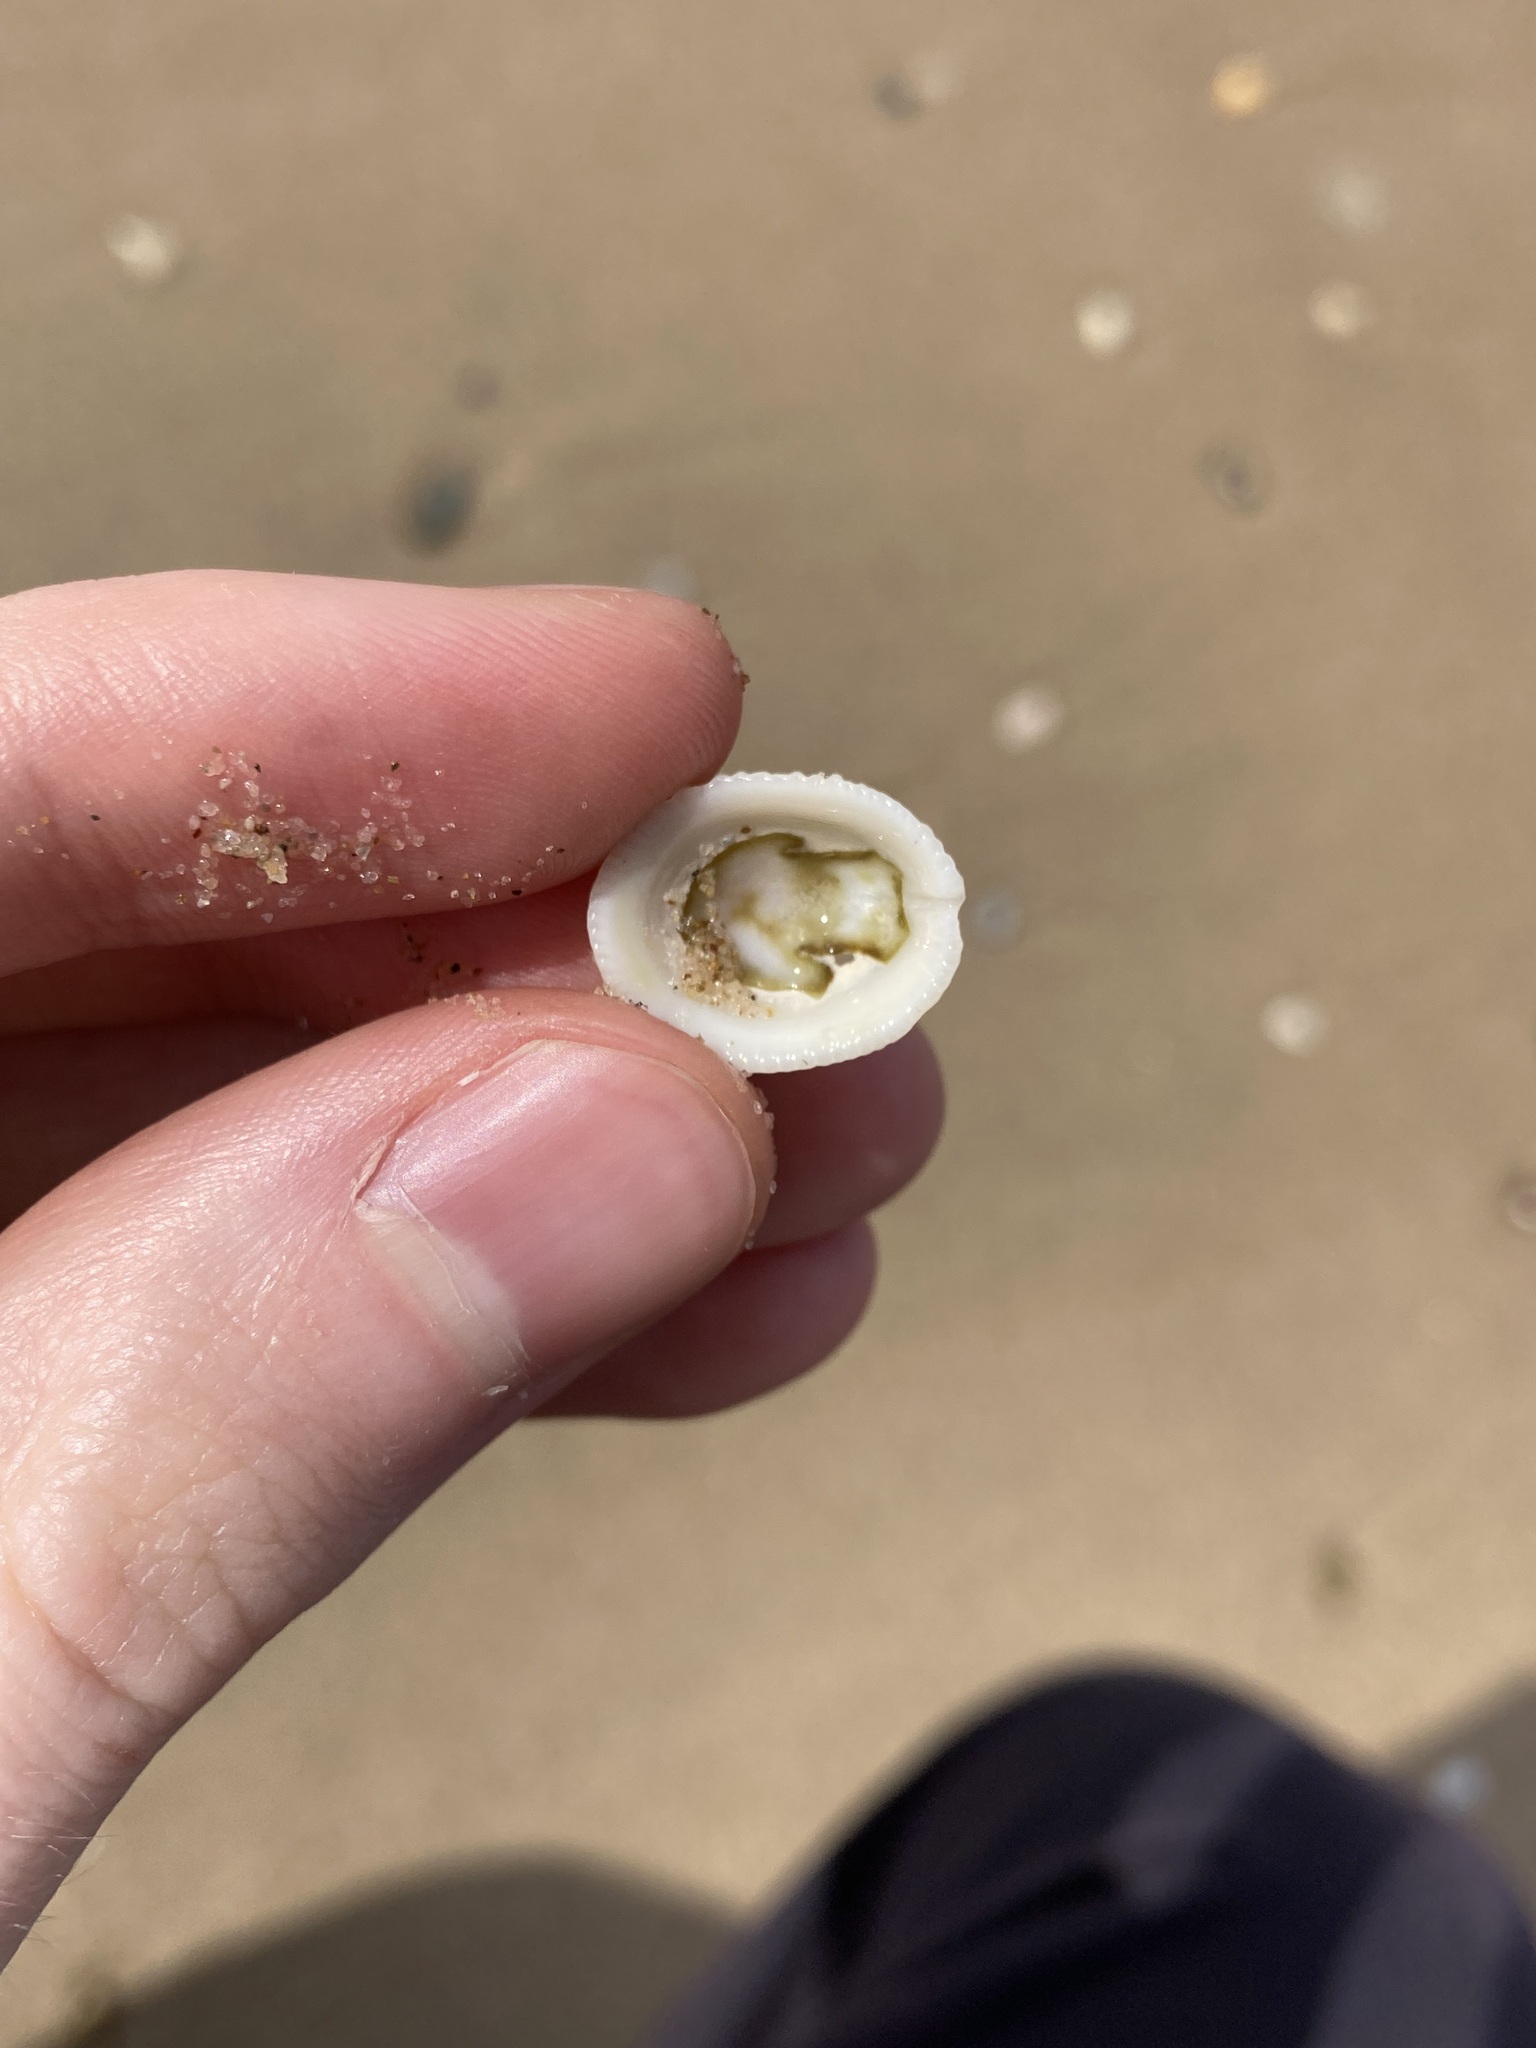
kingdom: Animalia
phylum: Mollusca
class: Gastropoda
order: Lepetellida
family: Fissurellidae
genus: Montfortula
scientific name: Montfortula rugosa
